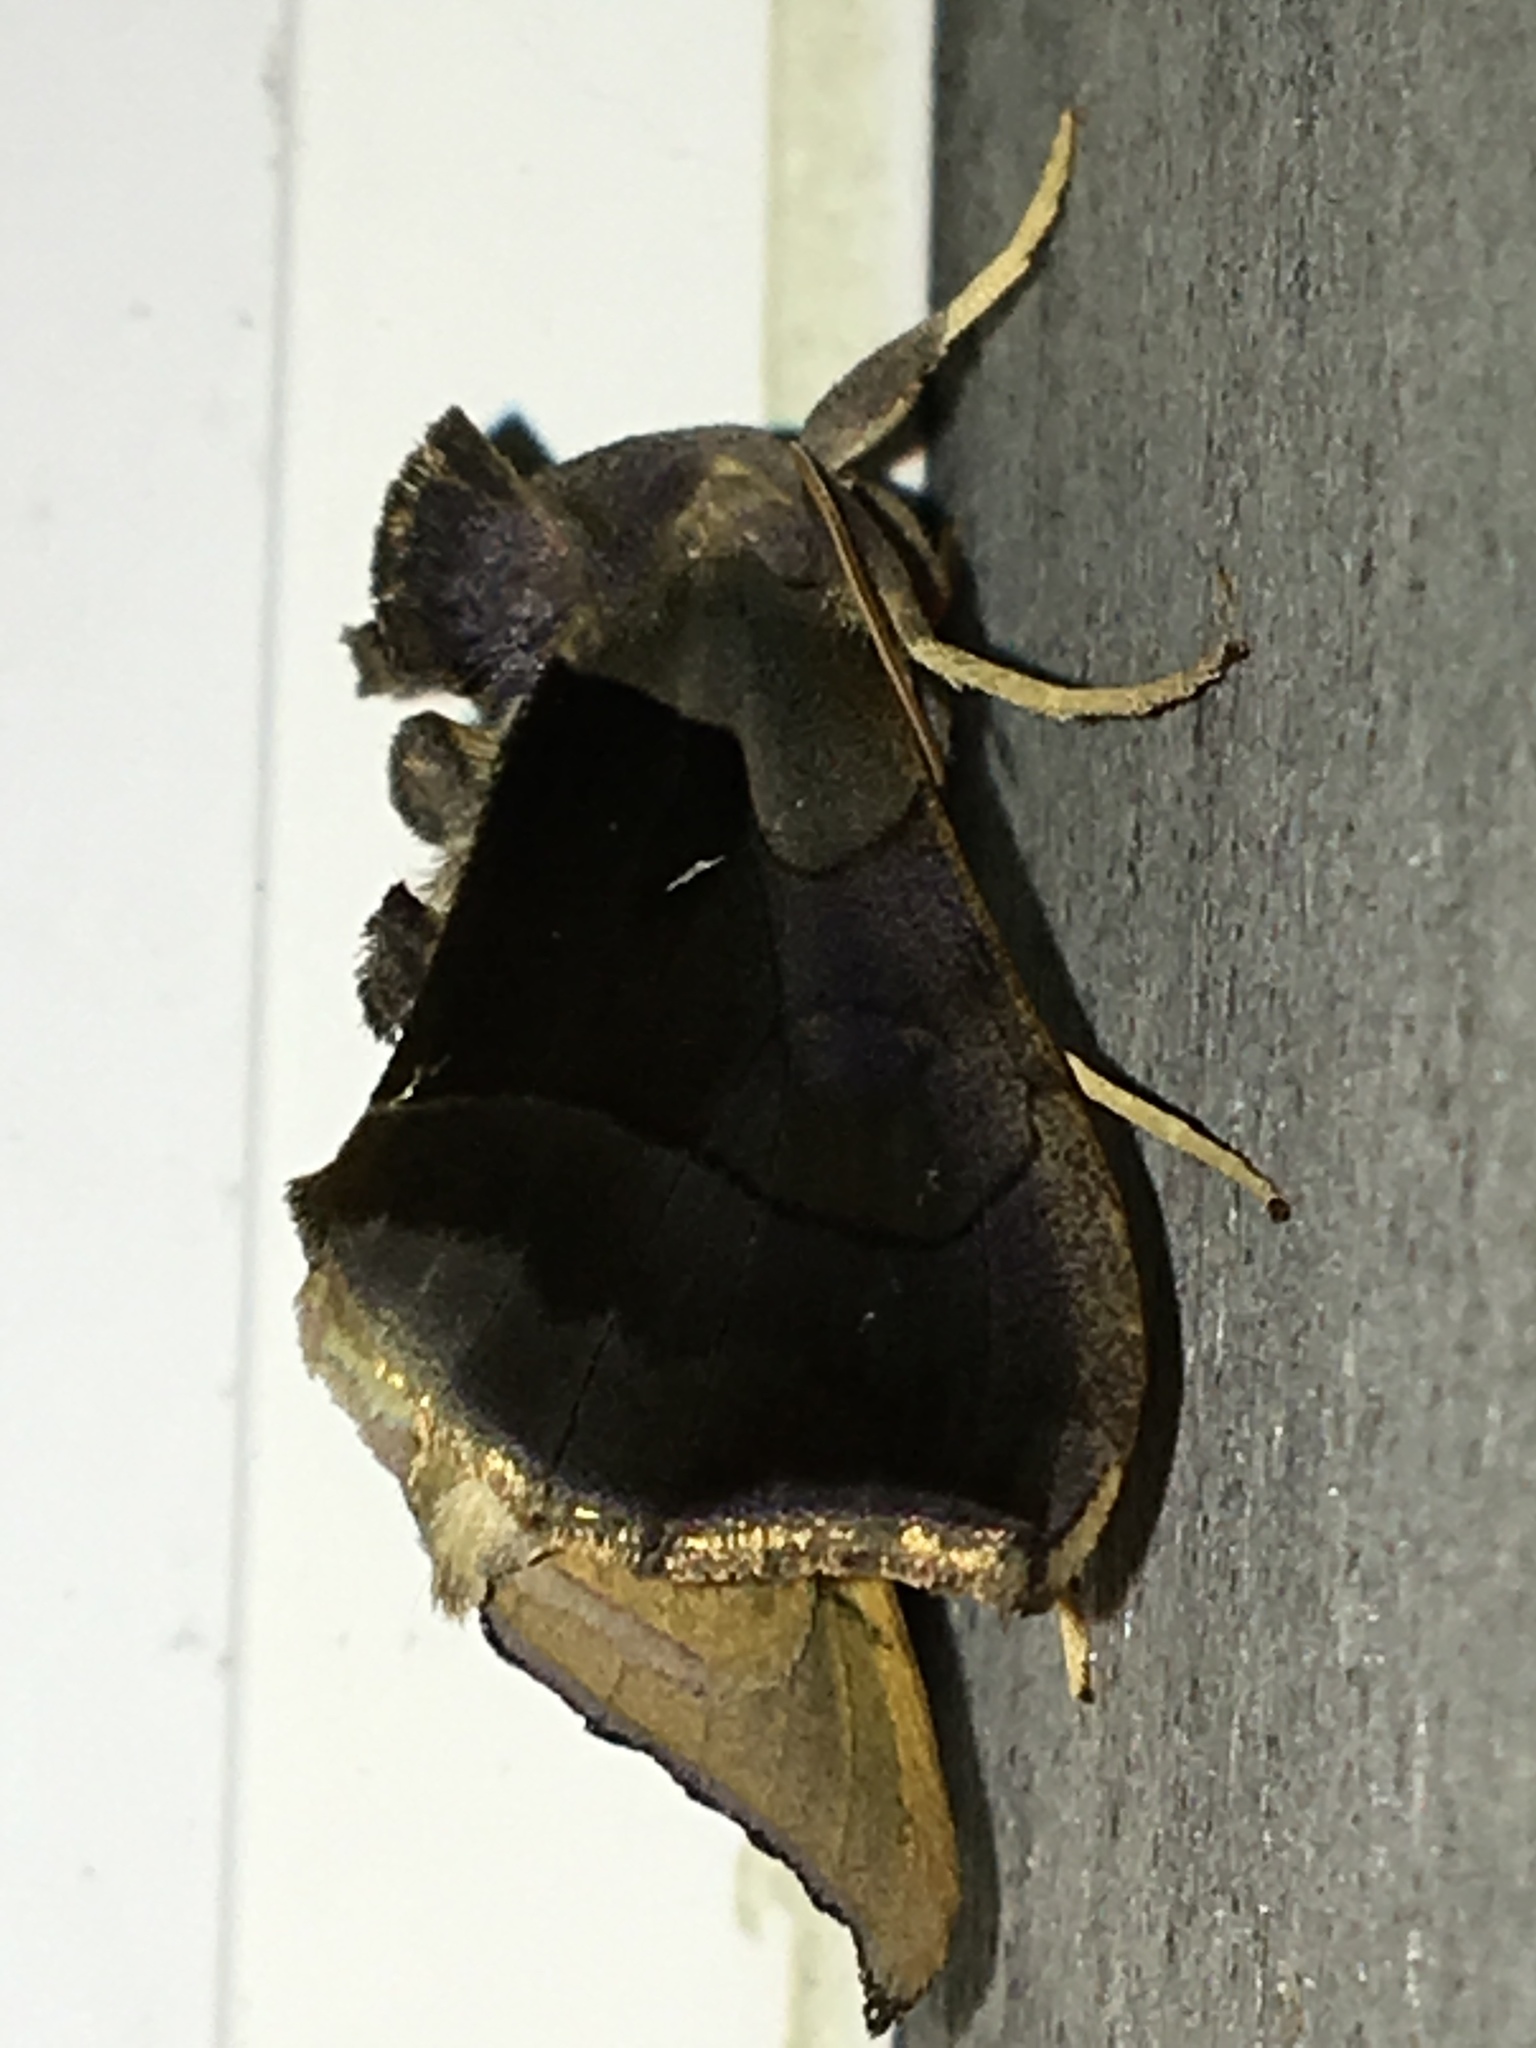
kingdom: Animalia
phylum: Arthropoda
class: Insecta
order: Lepidoptera
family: Noctuidae
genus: Diachrysia
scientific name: Diachrysia balluca
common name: Green-patched looper moth
